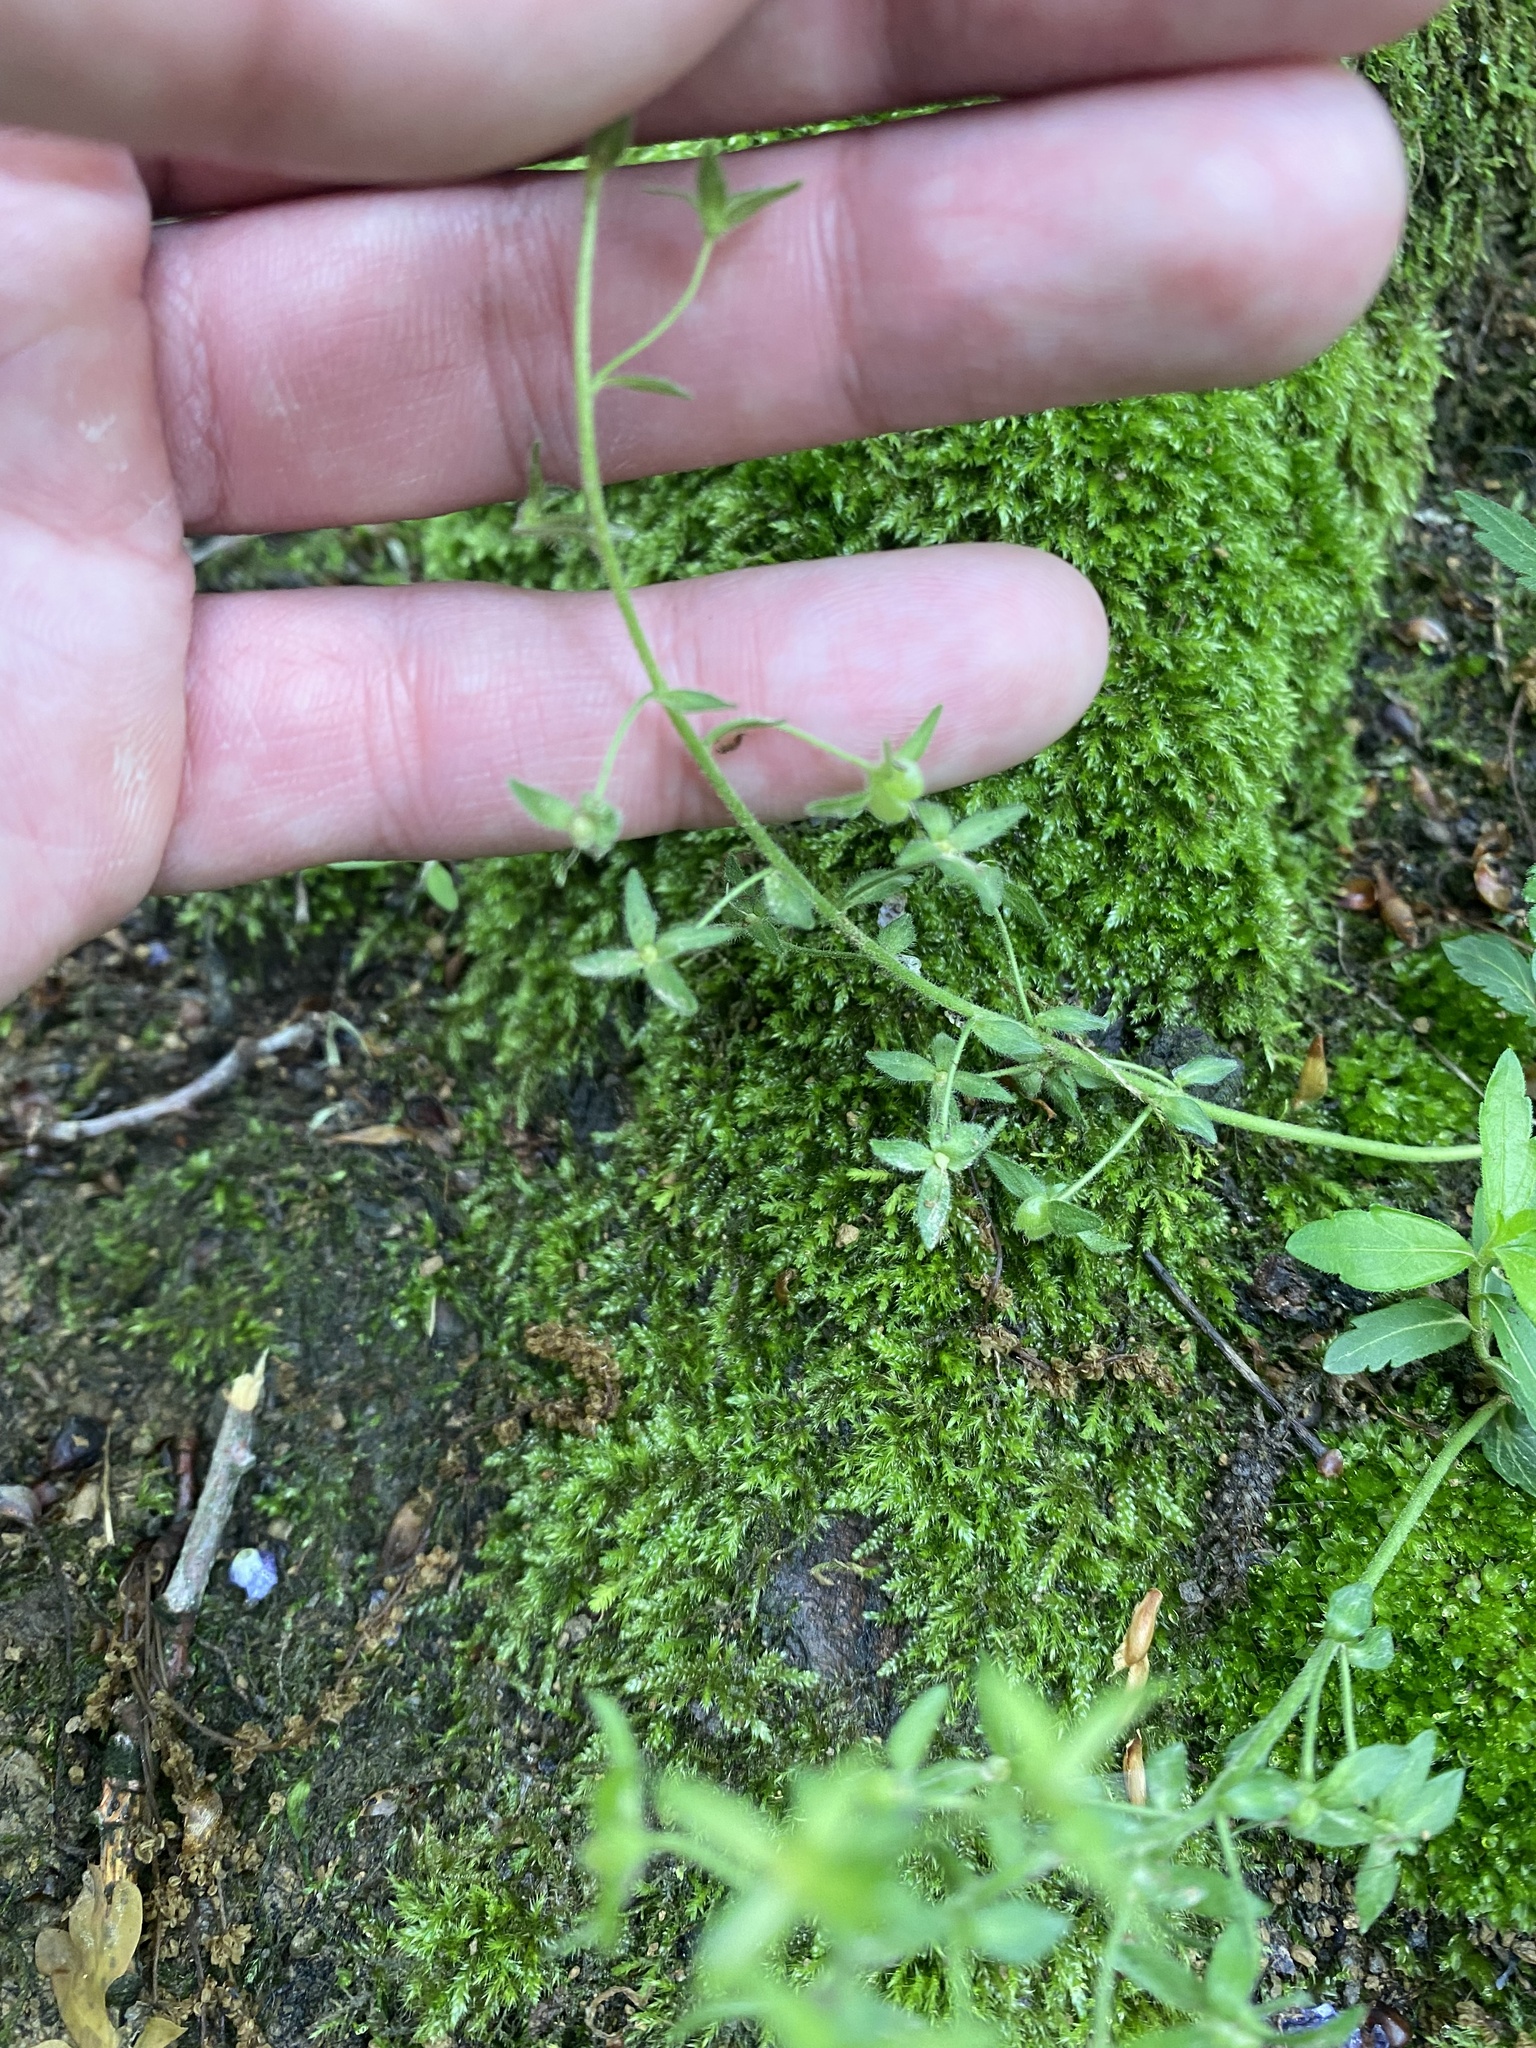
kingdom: Plantae
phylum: Tracheophyta
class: Magnoliopsida
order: Lamiales
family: Plantaginaceae
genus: Veronica
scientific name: Veronica
